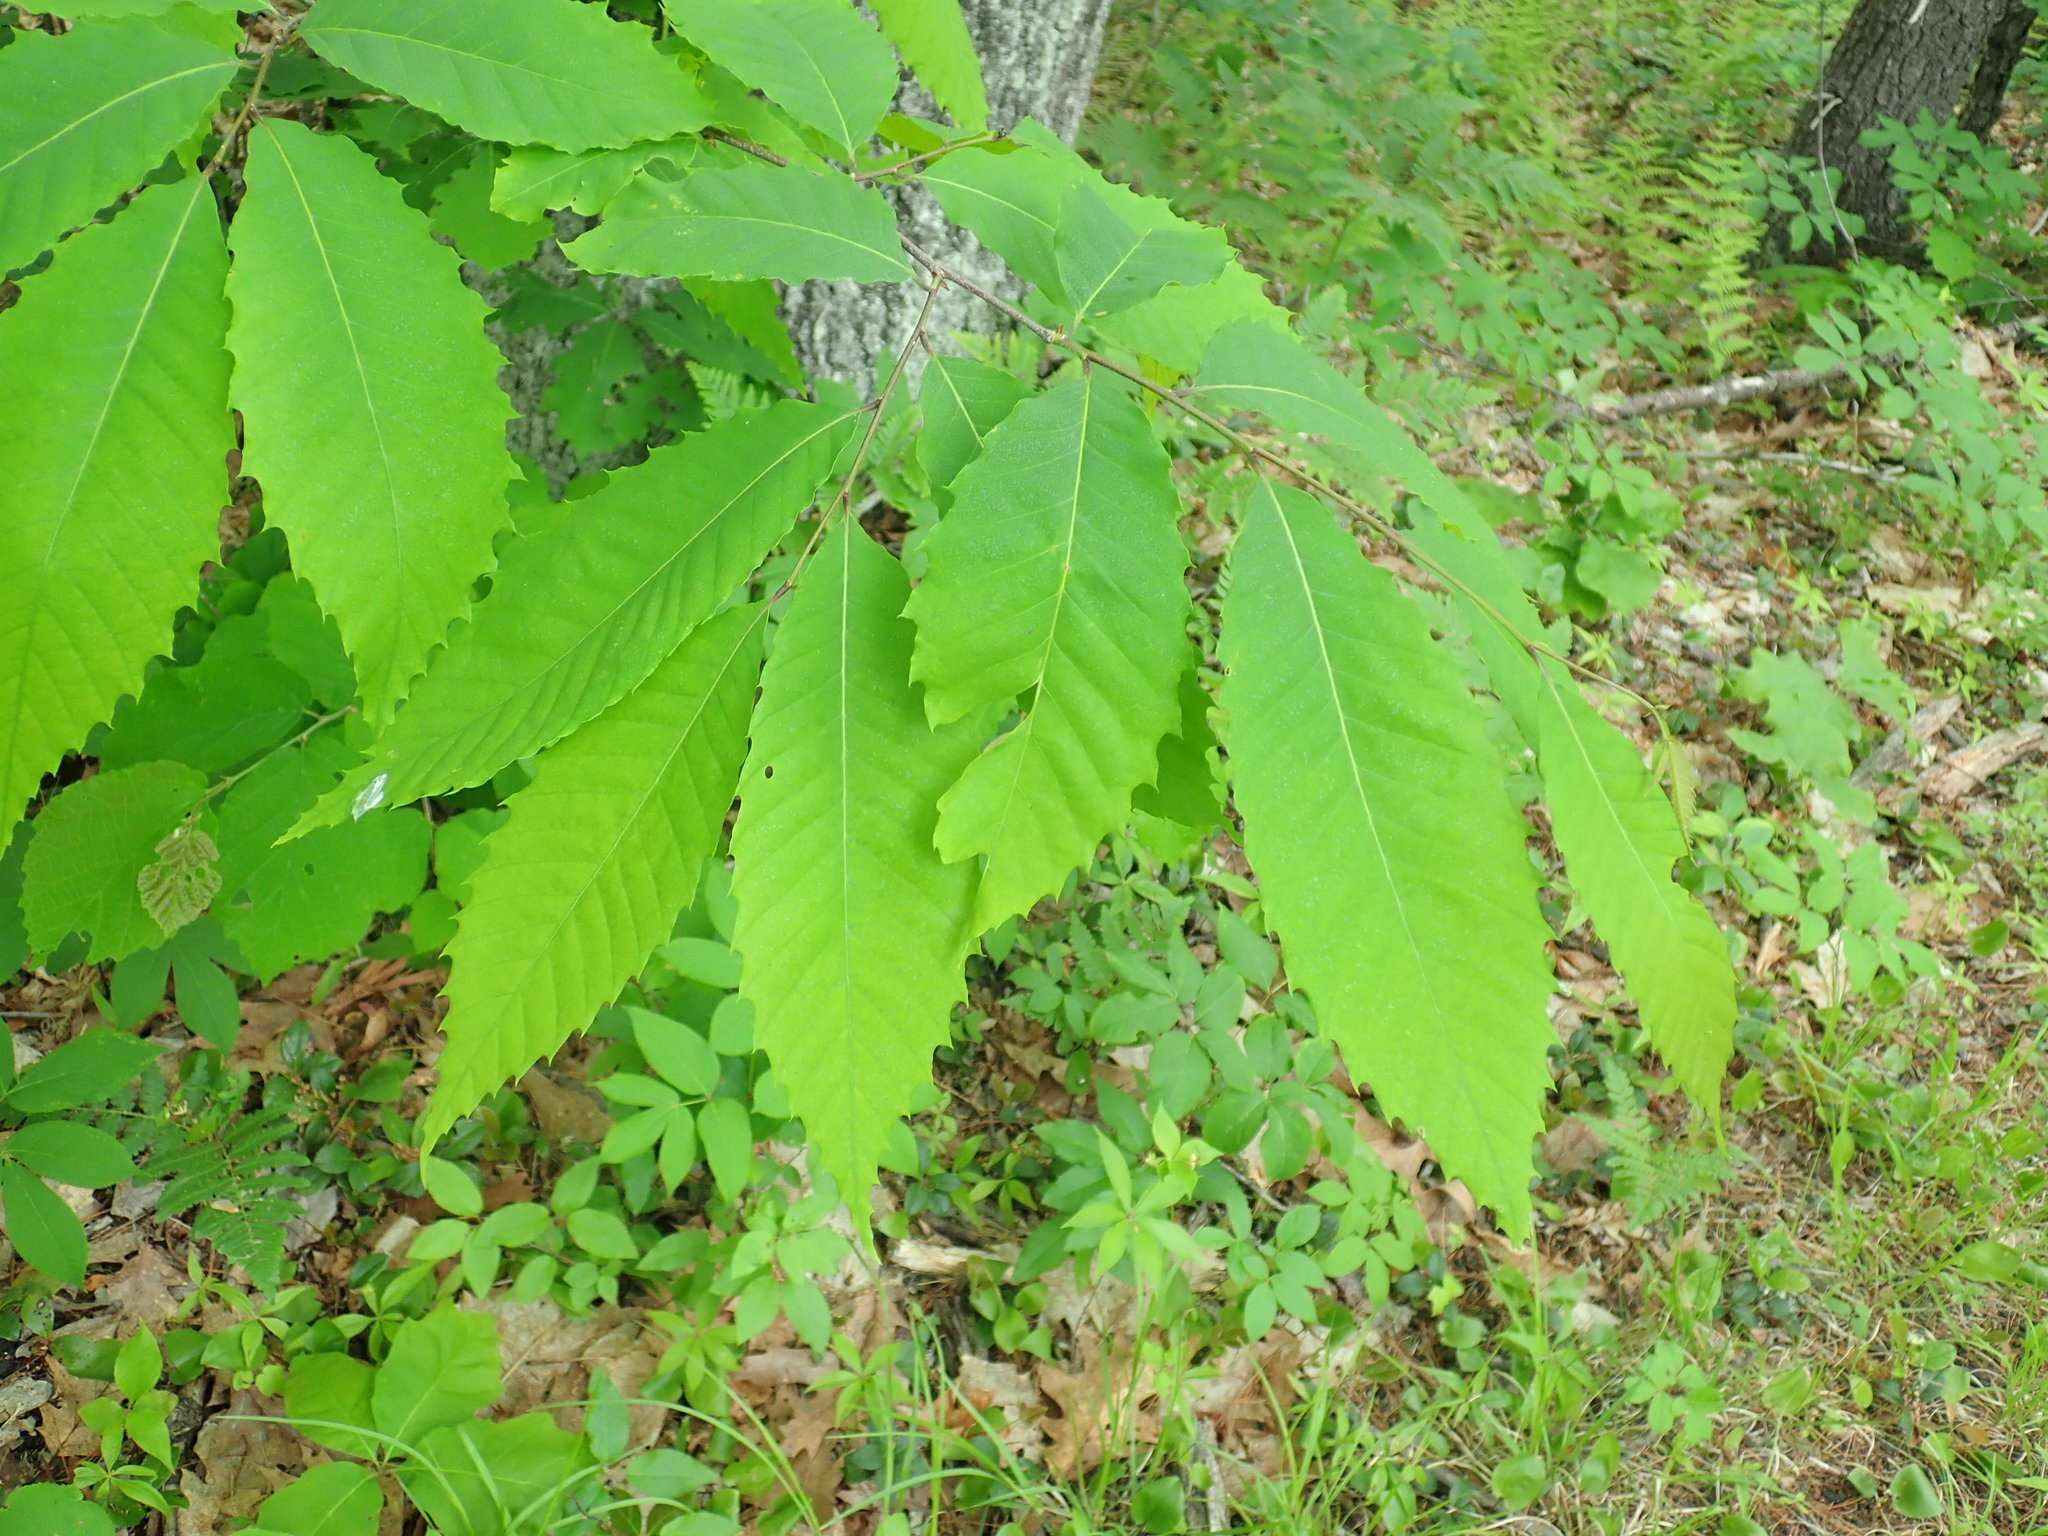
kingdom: Plantae
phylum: Tracheophyta
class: Magnoliopsida
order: Fagales
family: Fagaceae
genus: Castanea
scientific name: Castanea dentata
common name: American chestnut
